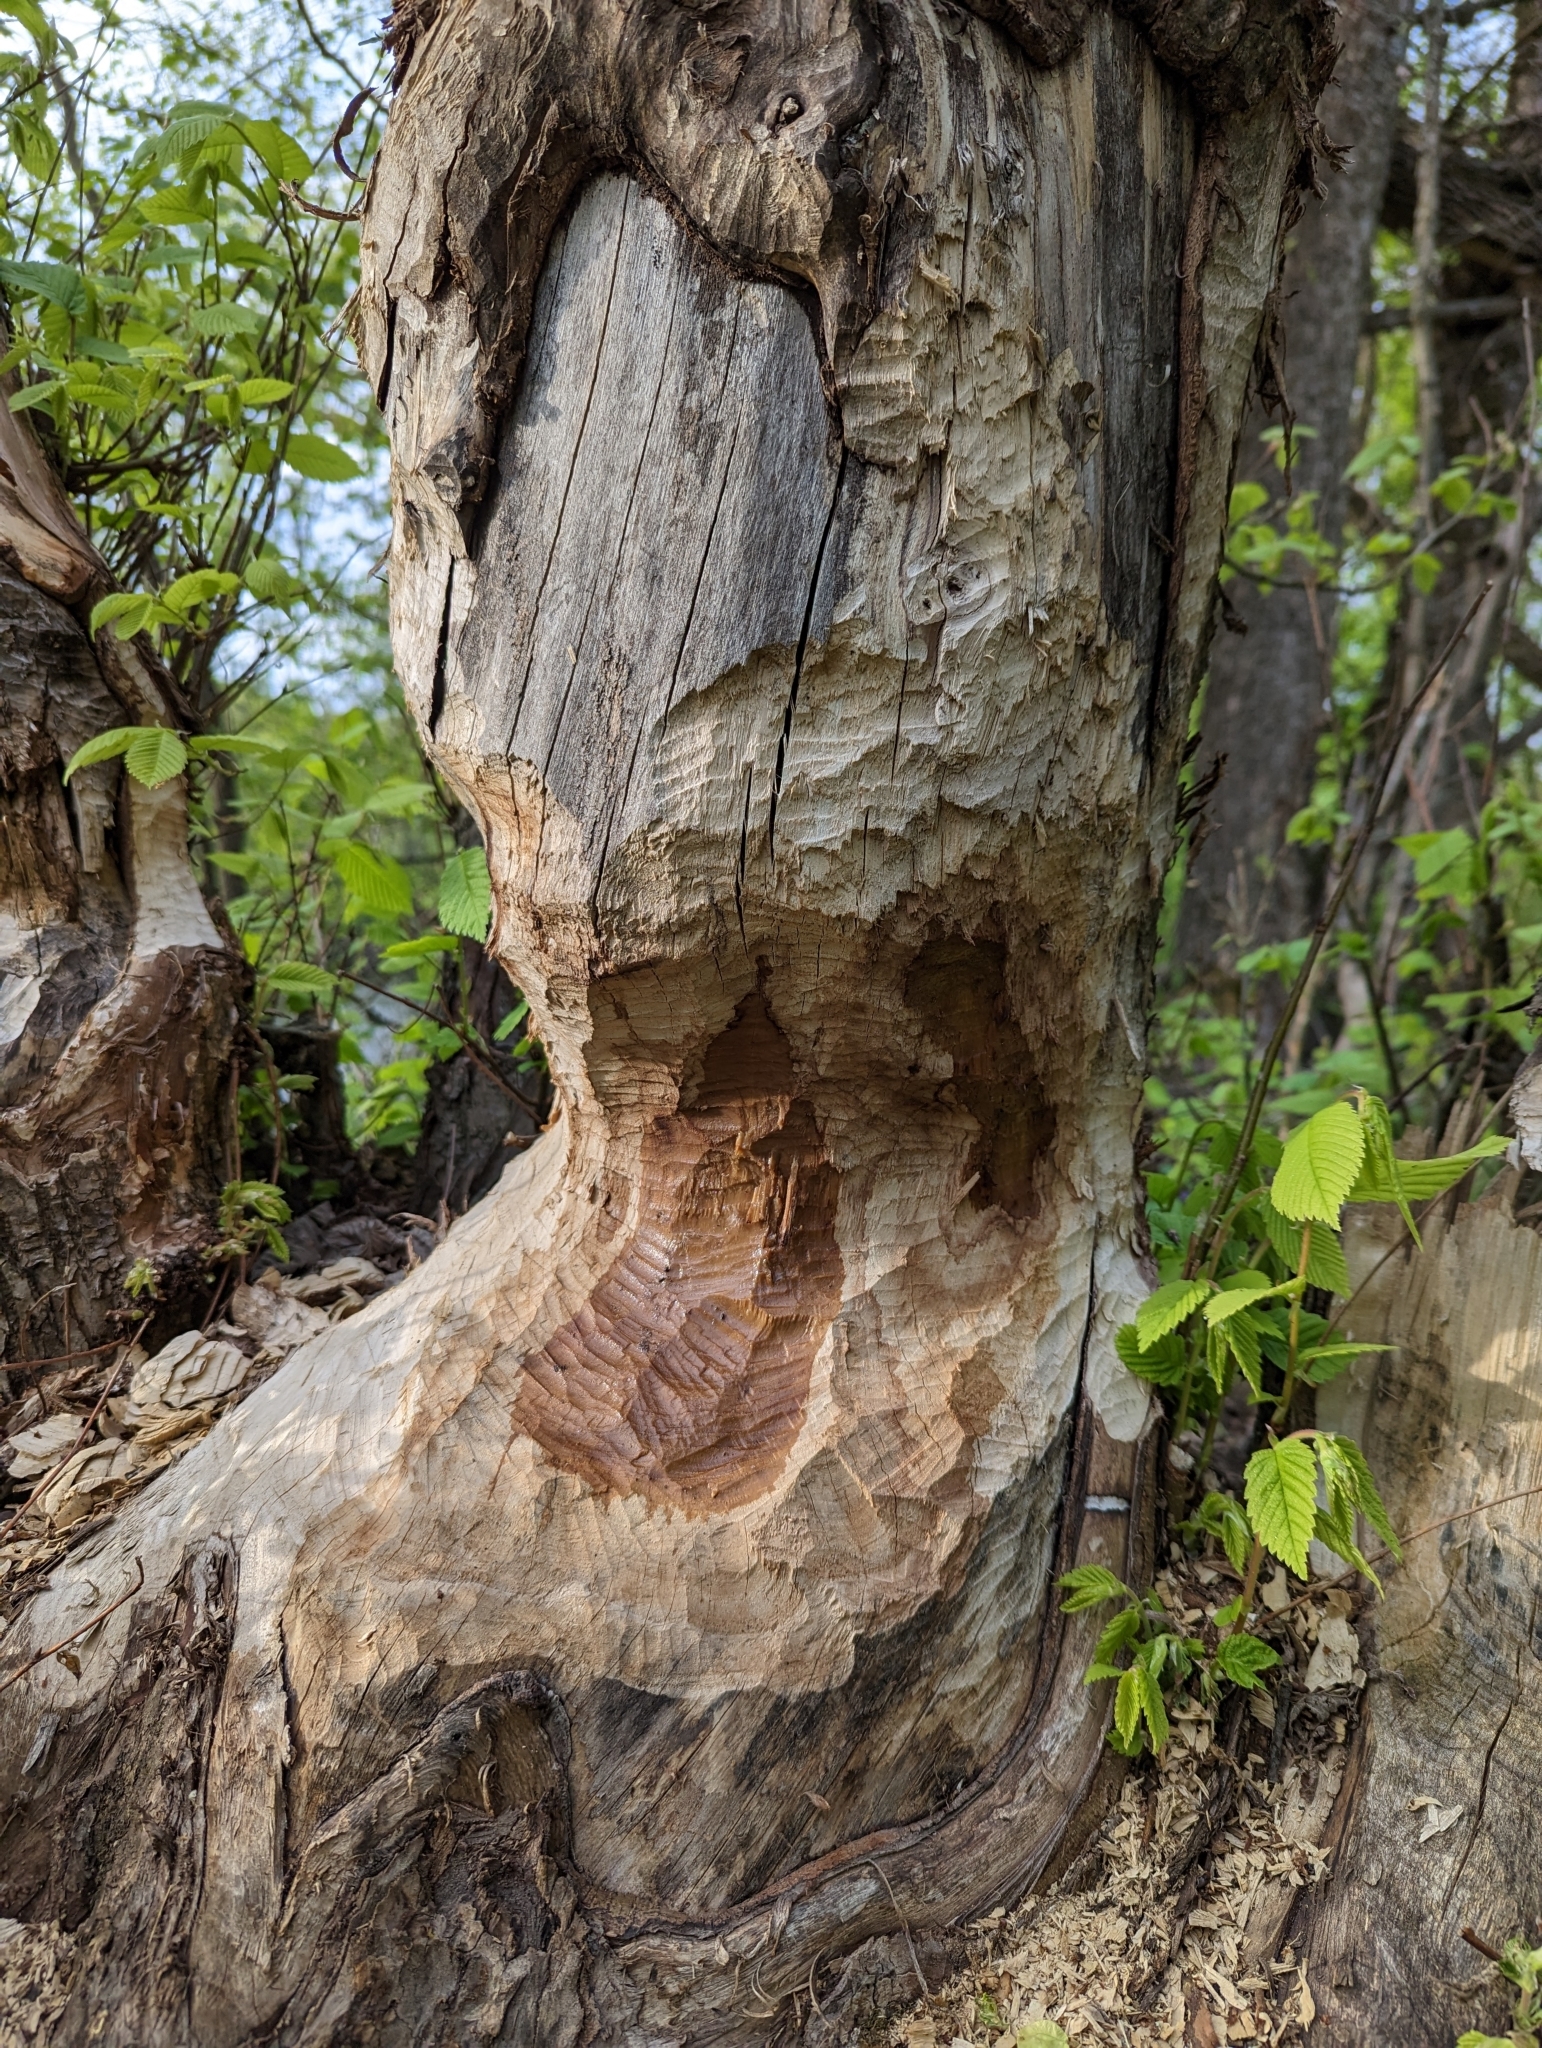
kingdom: Animalia
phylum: Chordata
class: Mammalia
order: Rodentia
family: Castoridae
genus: Castor
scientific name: Castor fiber
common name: Eurasian beaver
